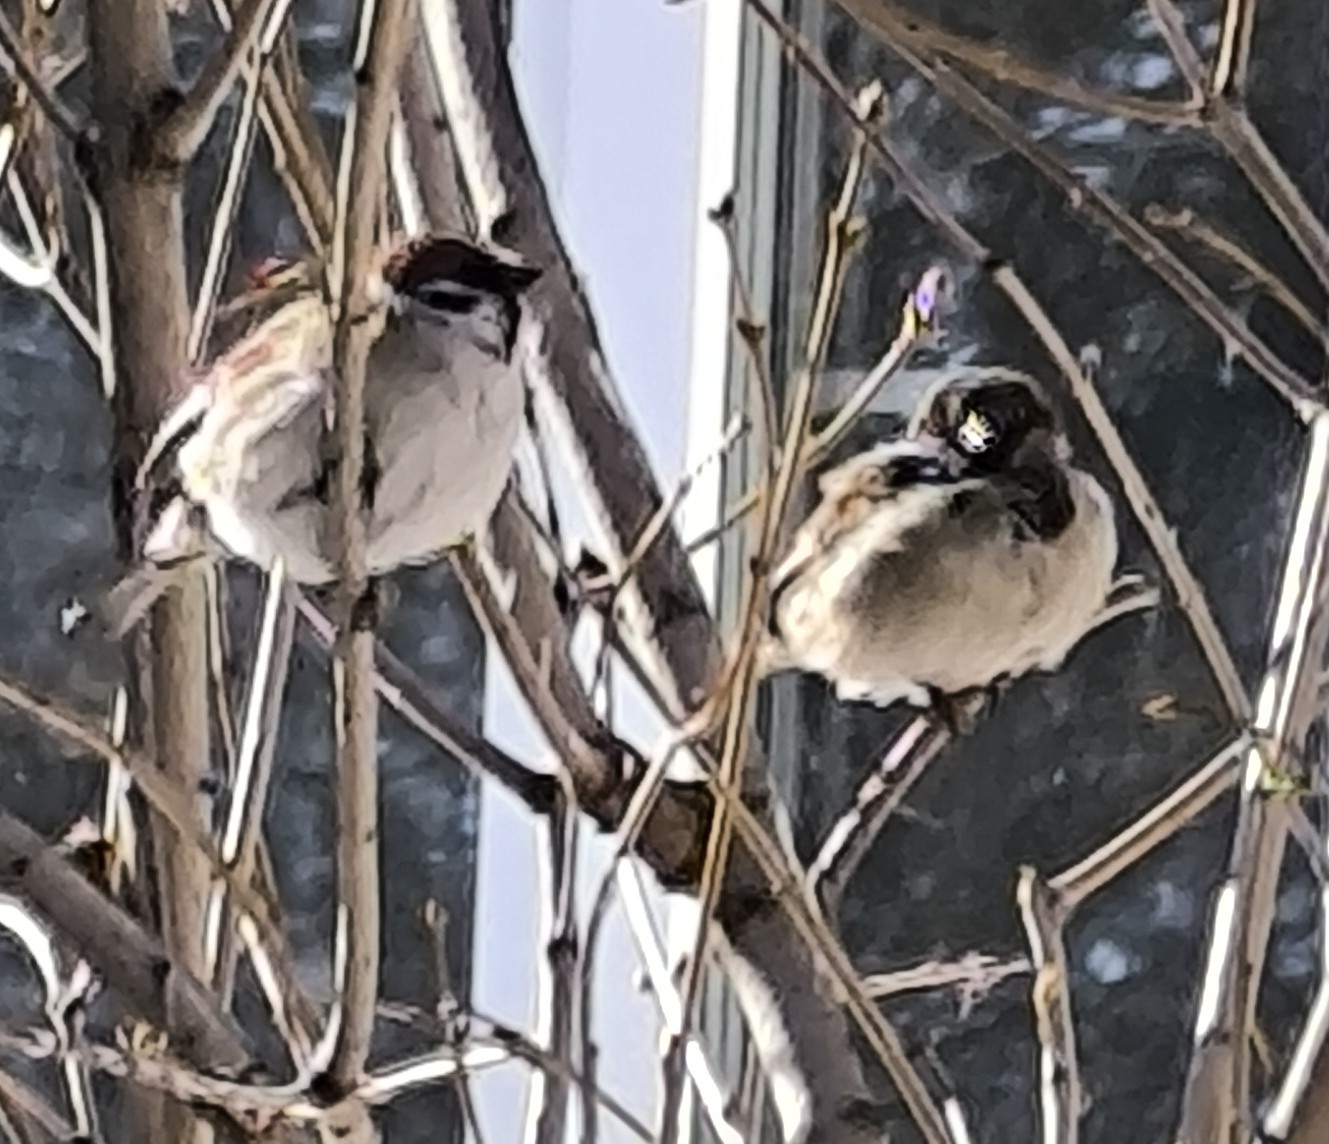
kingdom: Animalia
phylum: Chordata
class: Aves
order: Passeriformes
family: Passeridae
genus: Passer
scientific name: Passer montanus
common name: Eurasian tree sparrow
